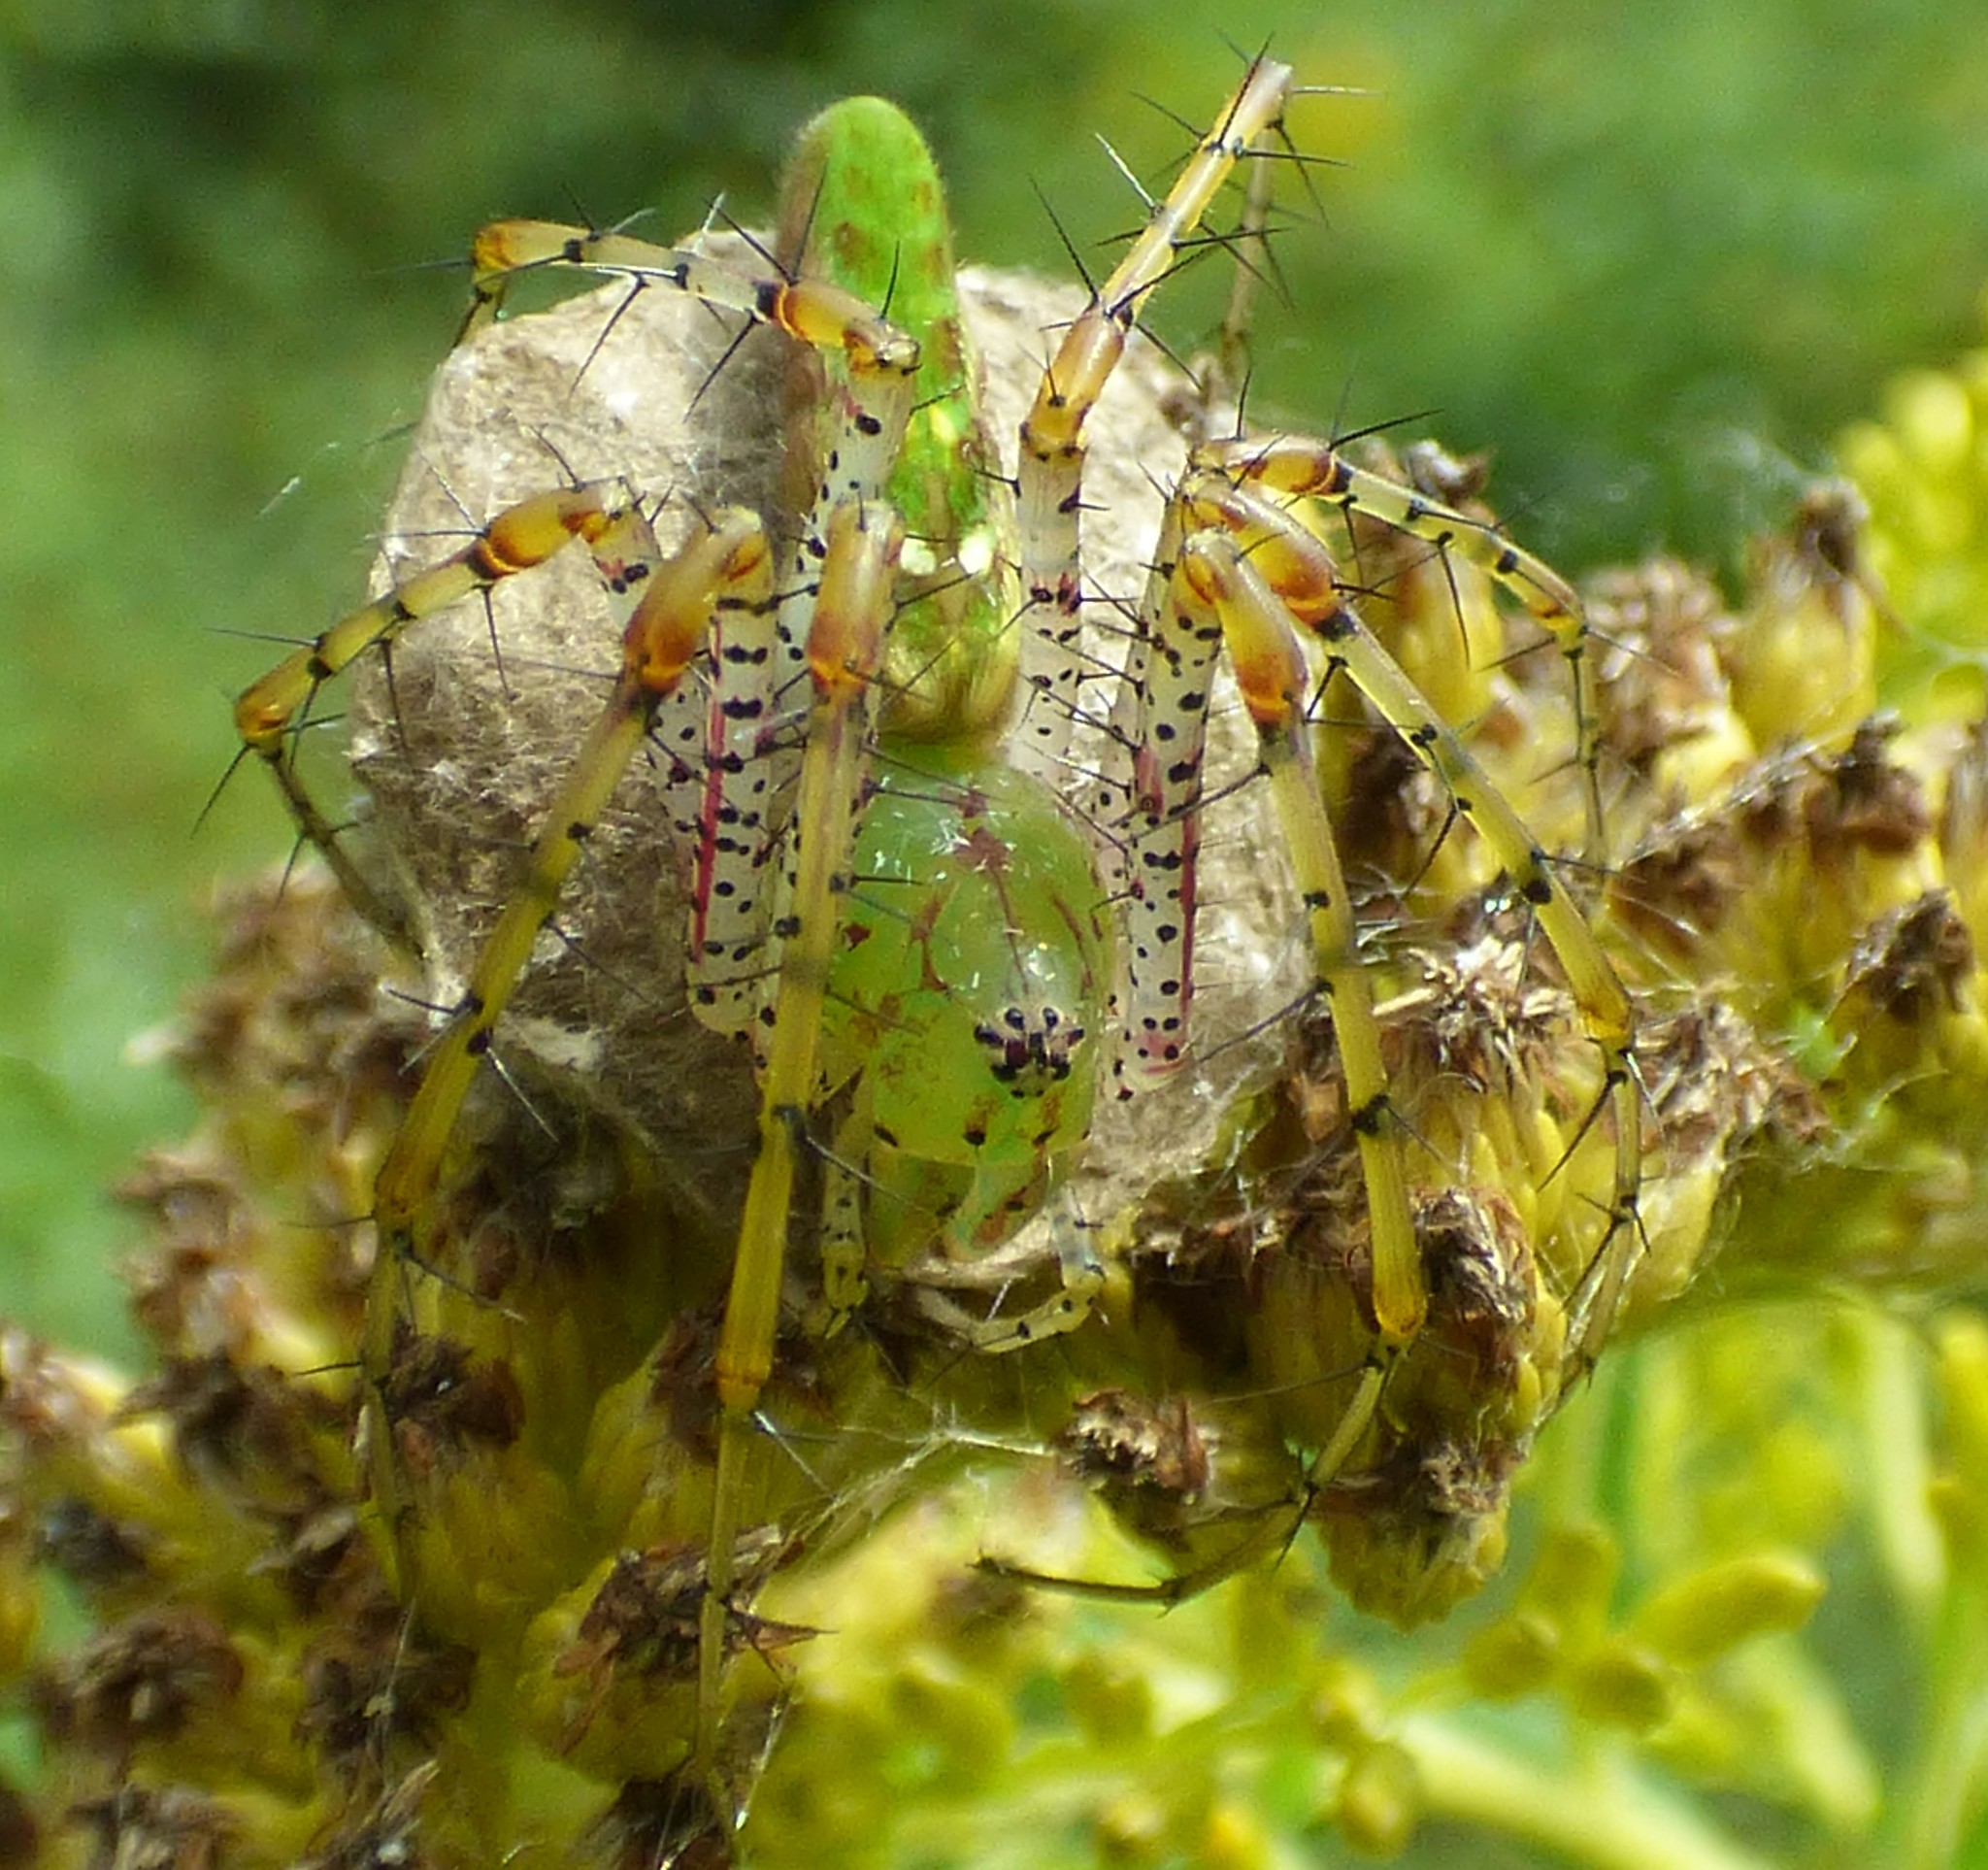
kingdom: Animalia
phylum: Arthropoda
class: Arachnida
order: Araneae
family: Oxyopidae
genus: Peucetia
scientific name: Peucetia viridans
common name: Lynx spiders
